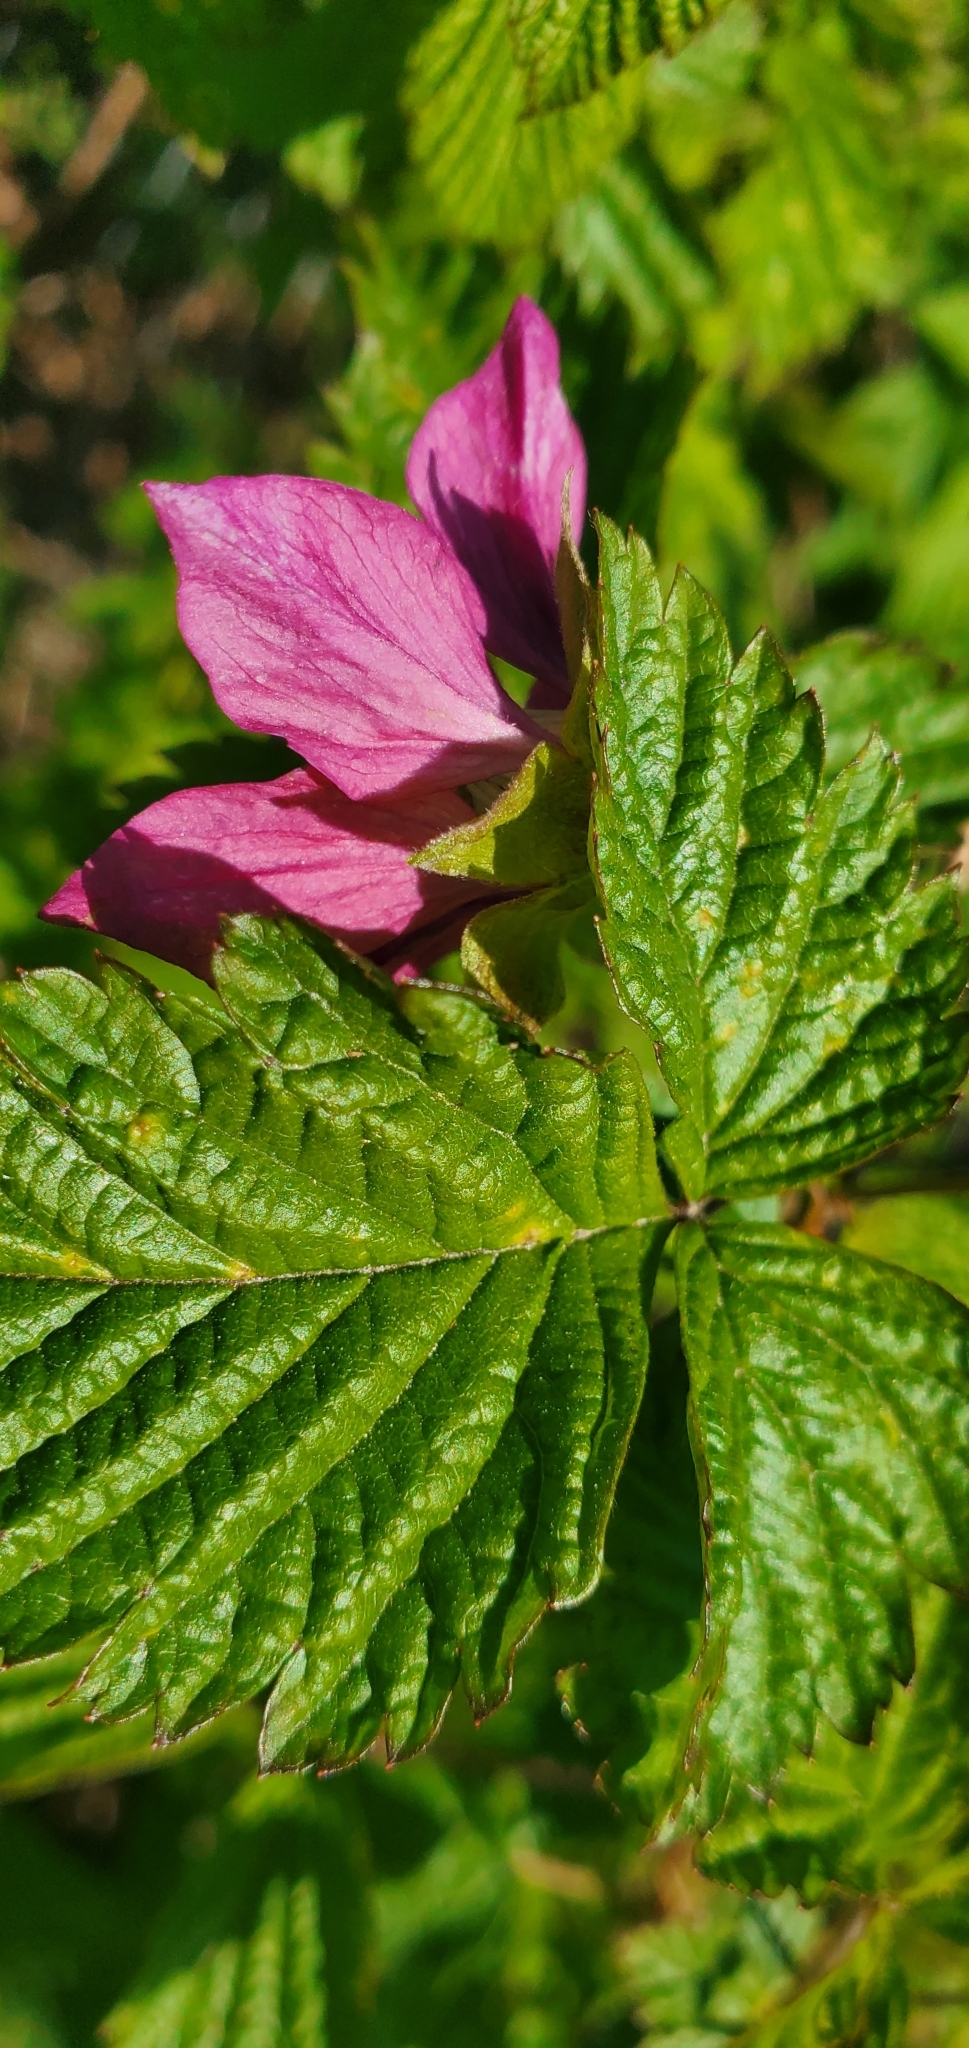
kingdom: Plantae
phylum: Tracheophyta
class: Magnoliopsida
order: Rosales
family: Rosaceae
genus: Rubus
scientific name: Rubus spectabilis
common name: Salmonberry
